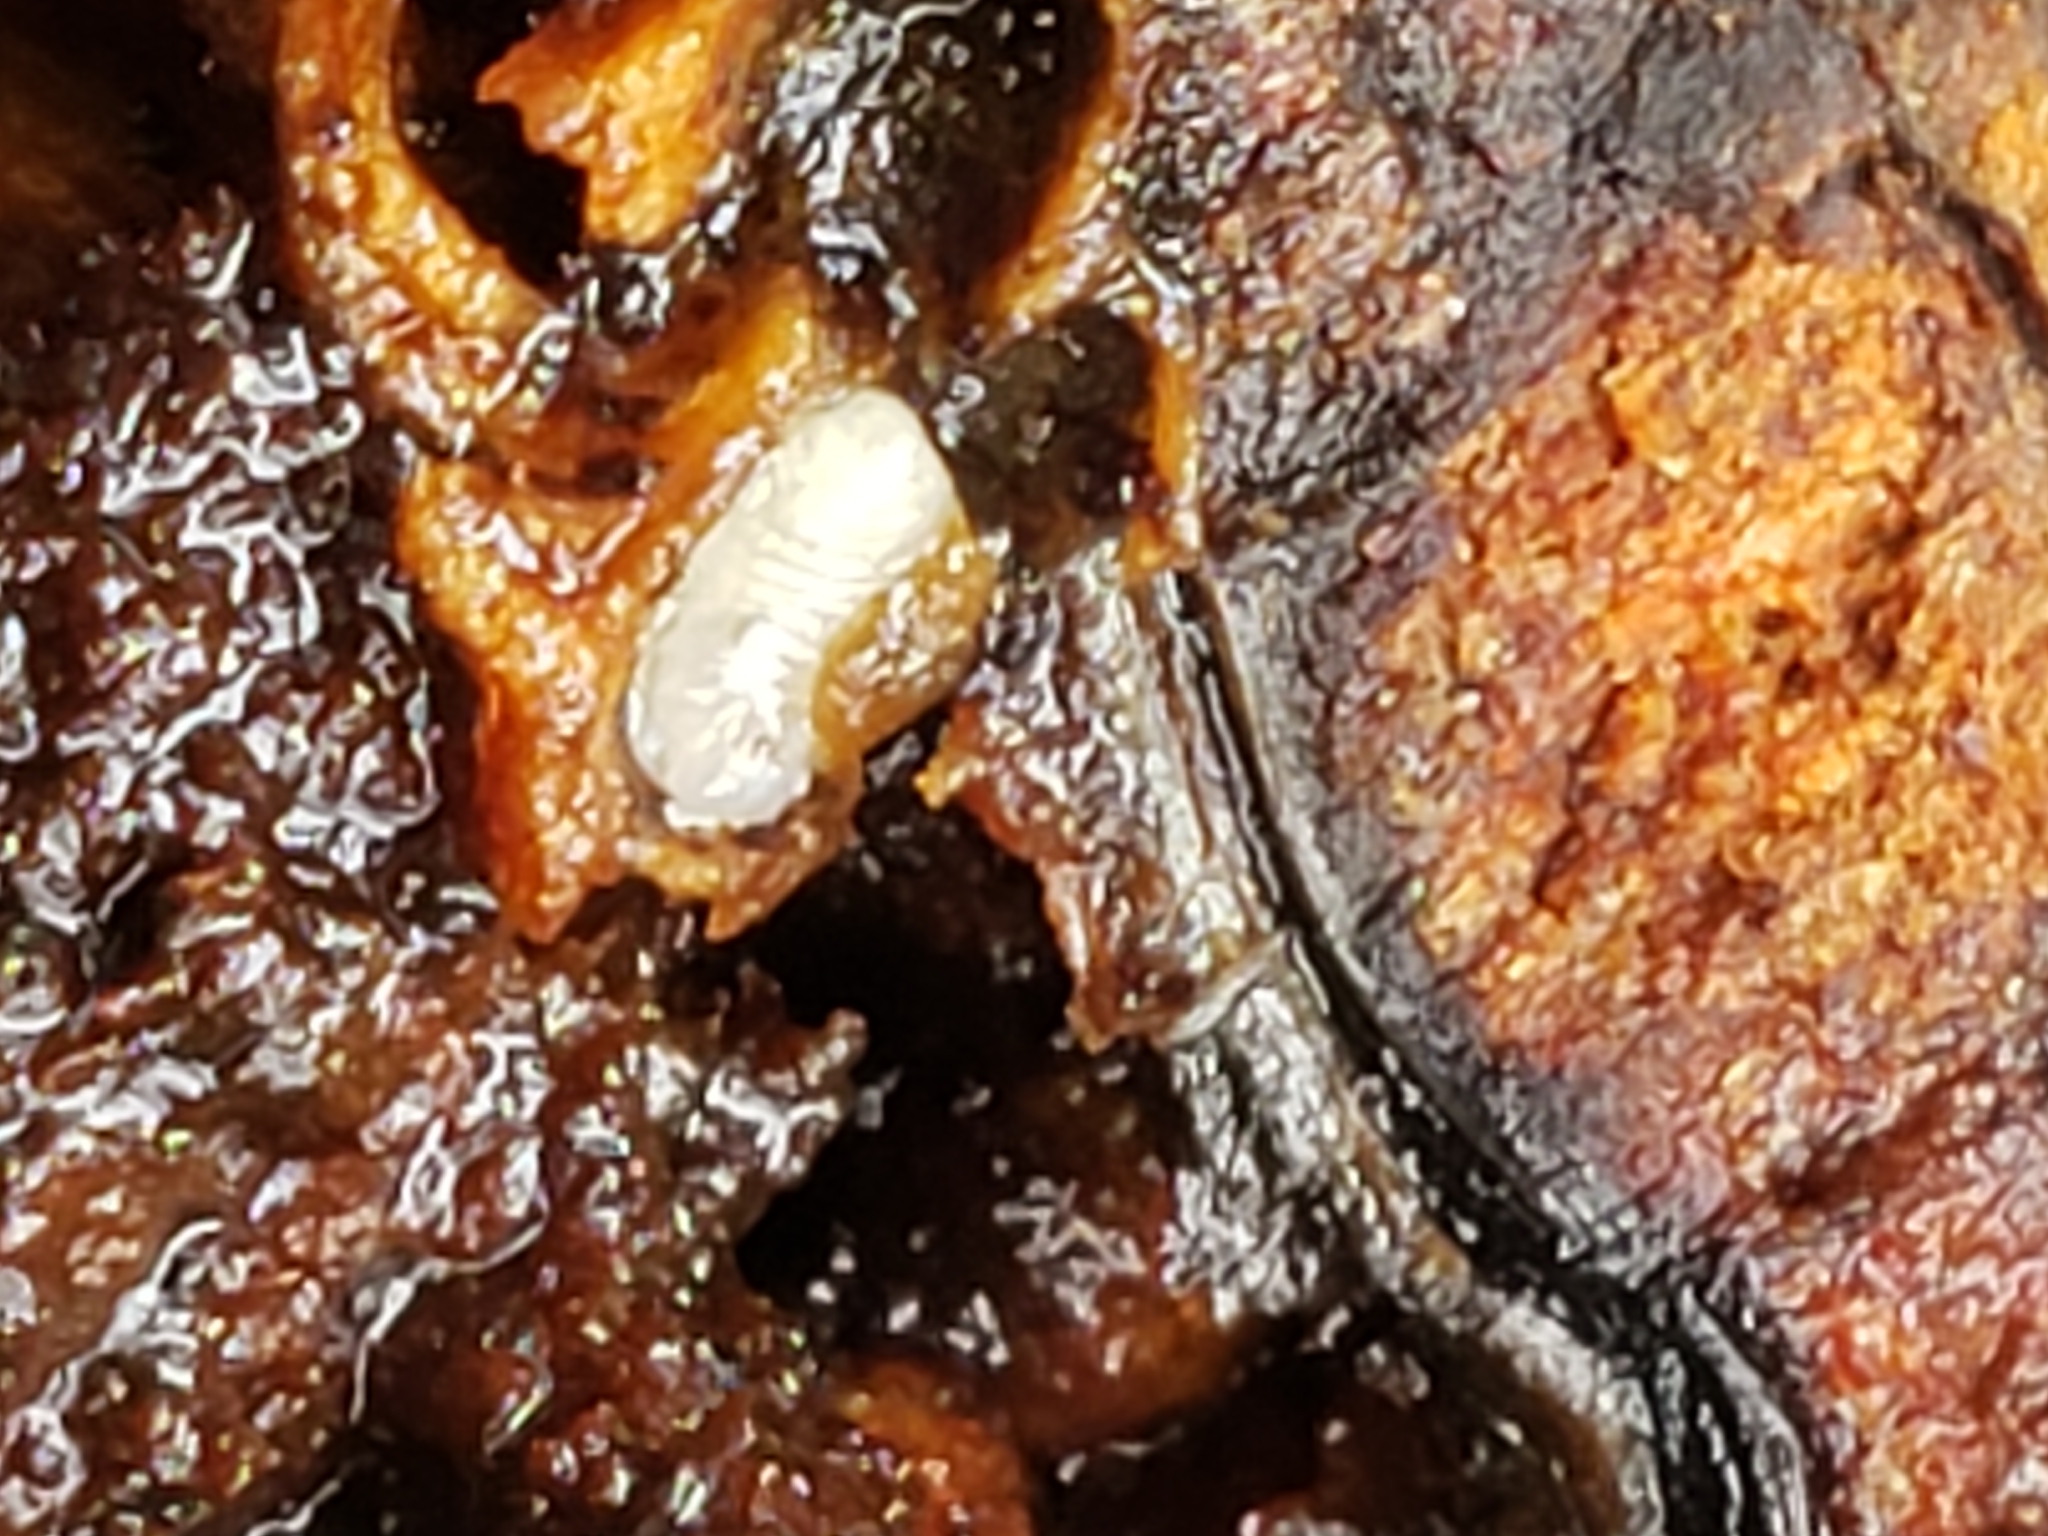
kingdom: Animalia
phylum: Arthropoda
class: Insecta
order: Hymenoptera
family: Cynipidae
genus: Diastrophus
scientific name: Diastrophus
